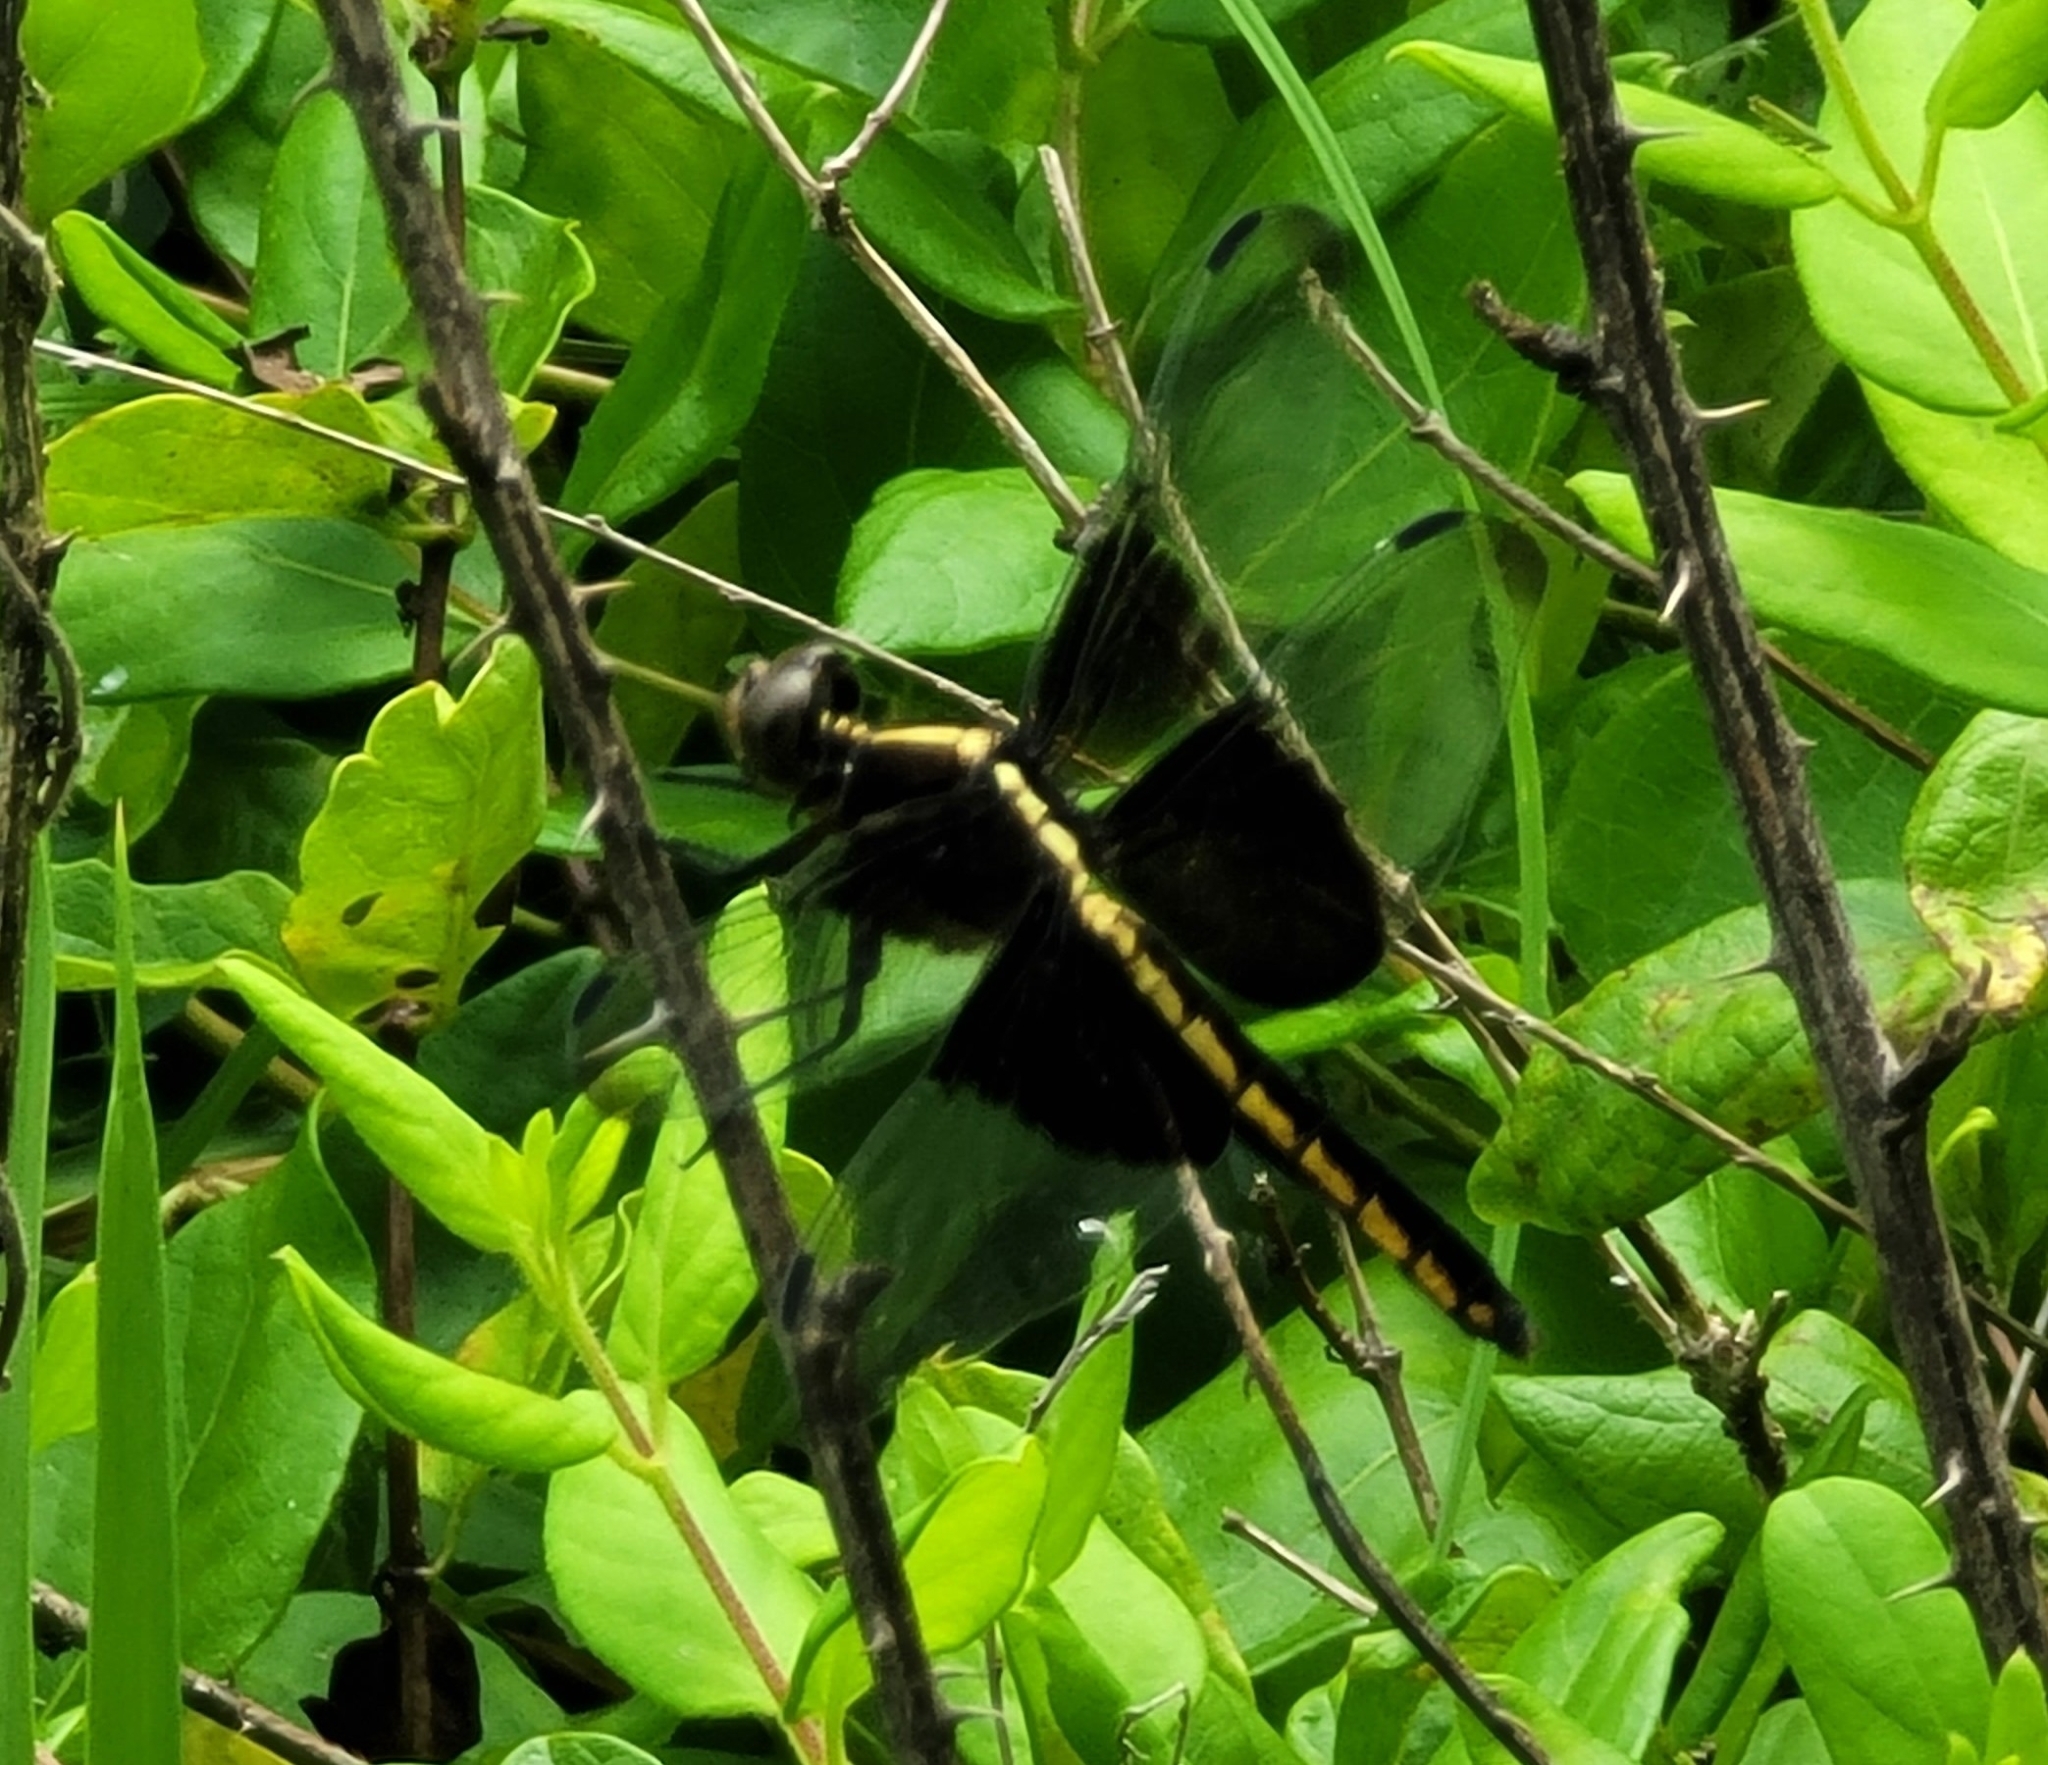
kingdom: Animalia
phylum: Arthropoda
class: Insecta
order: Odonata
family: Libellulidae
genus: Libellula
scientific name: Libellula luctuosa
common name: Widow skimmer
